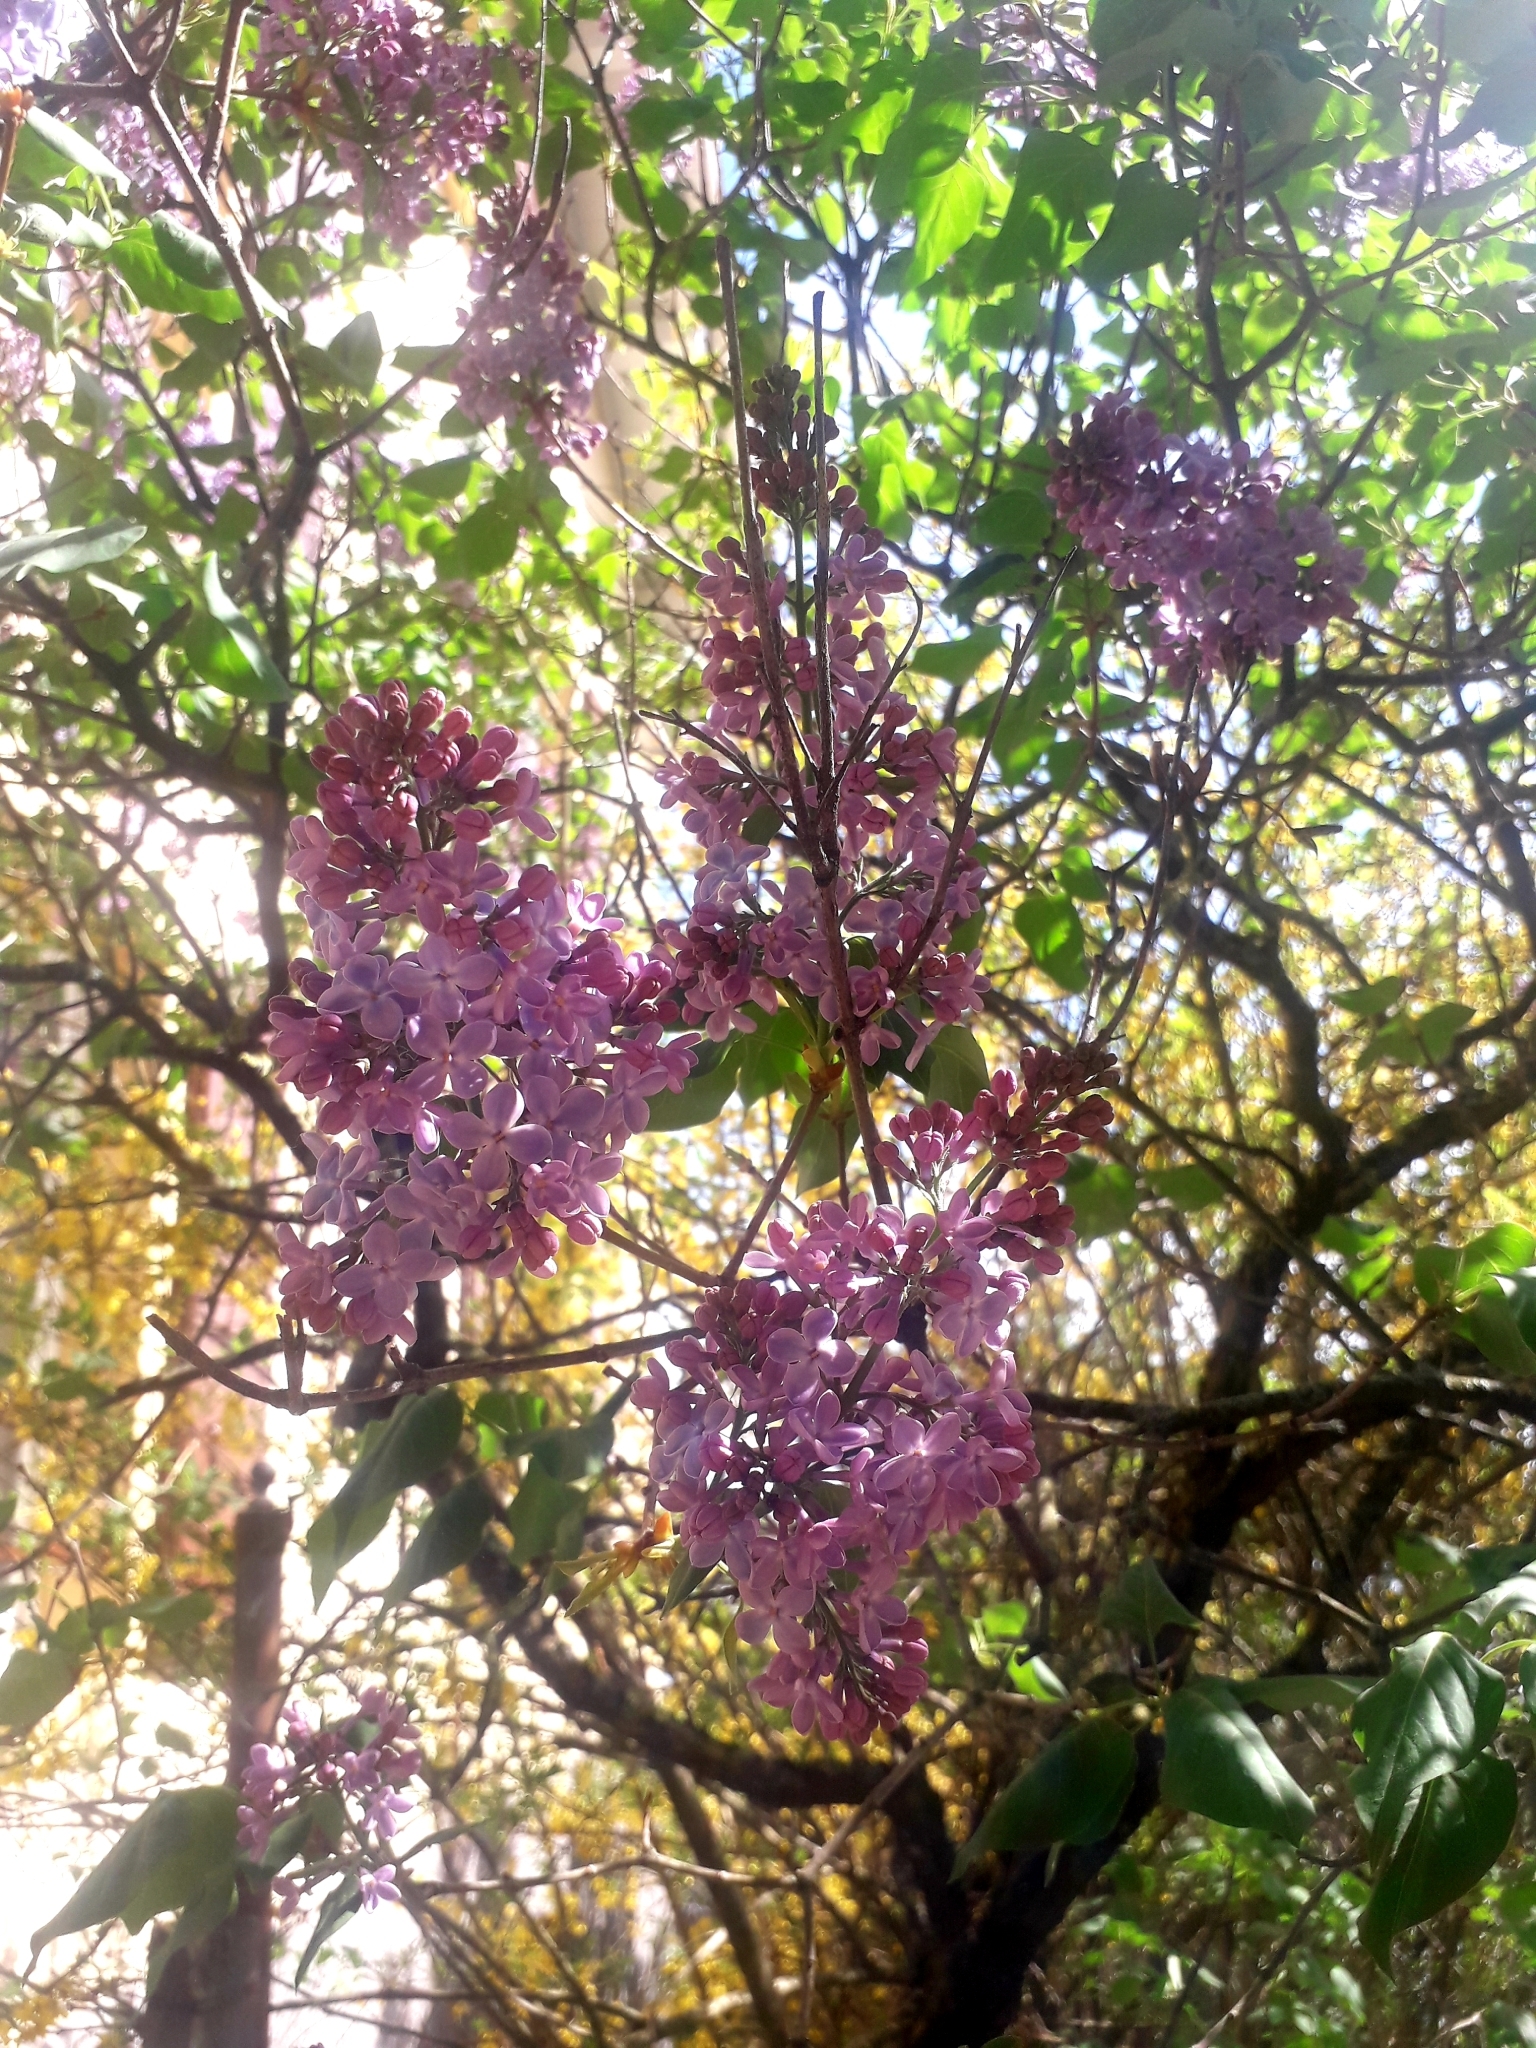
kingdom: Plantae
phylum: Tracheophyta
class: Magnoliopsida
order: Lamiales
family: Oleaceae
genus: Syringa
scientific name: Syringa vulgaris
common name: Common lilac
